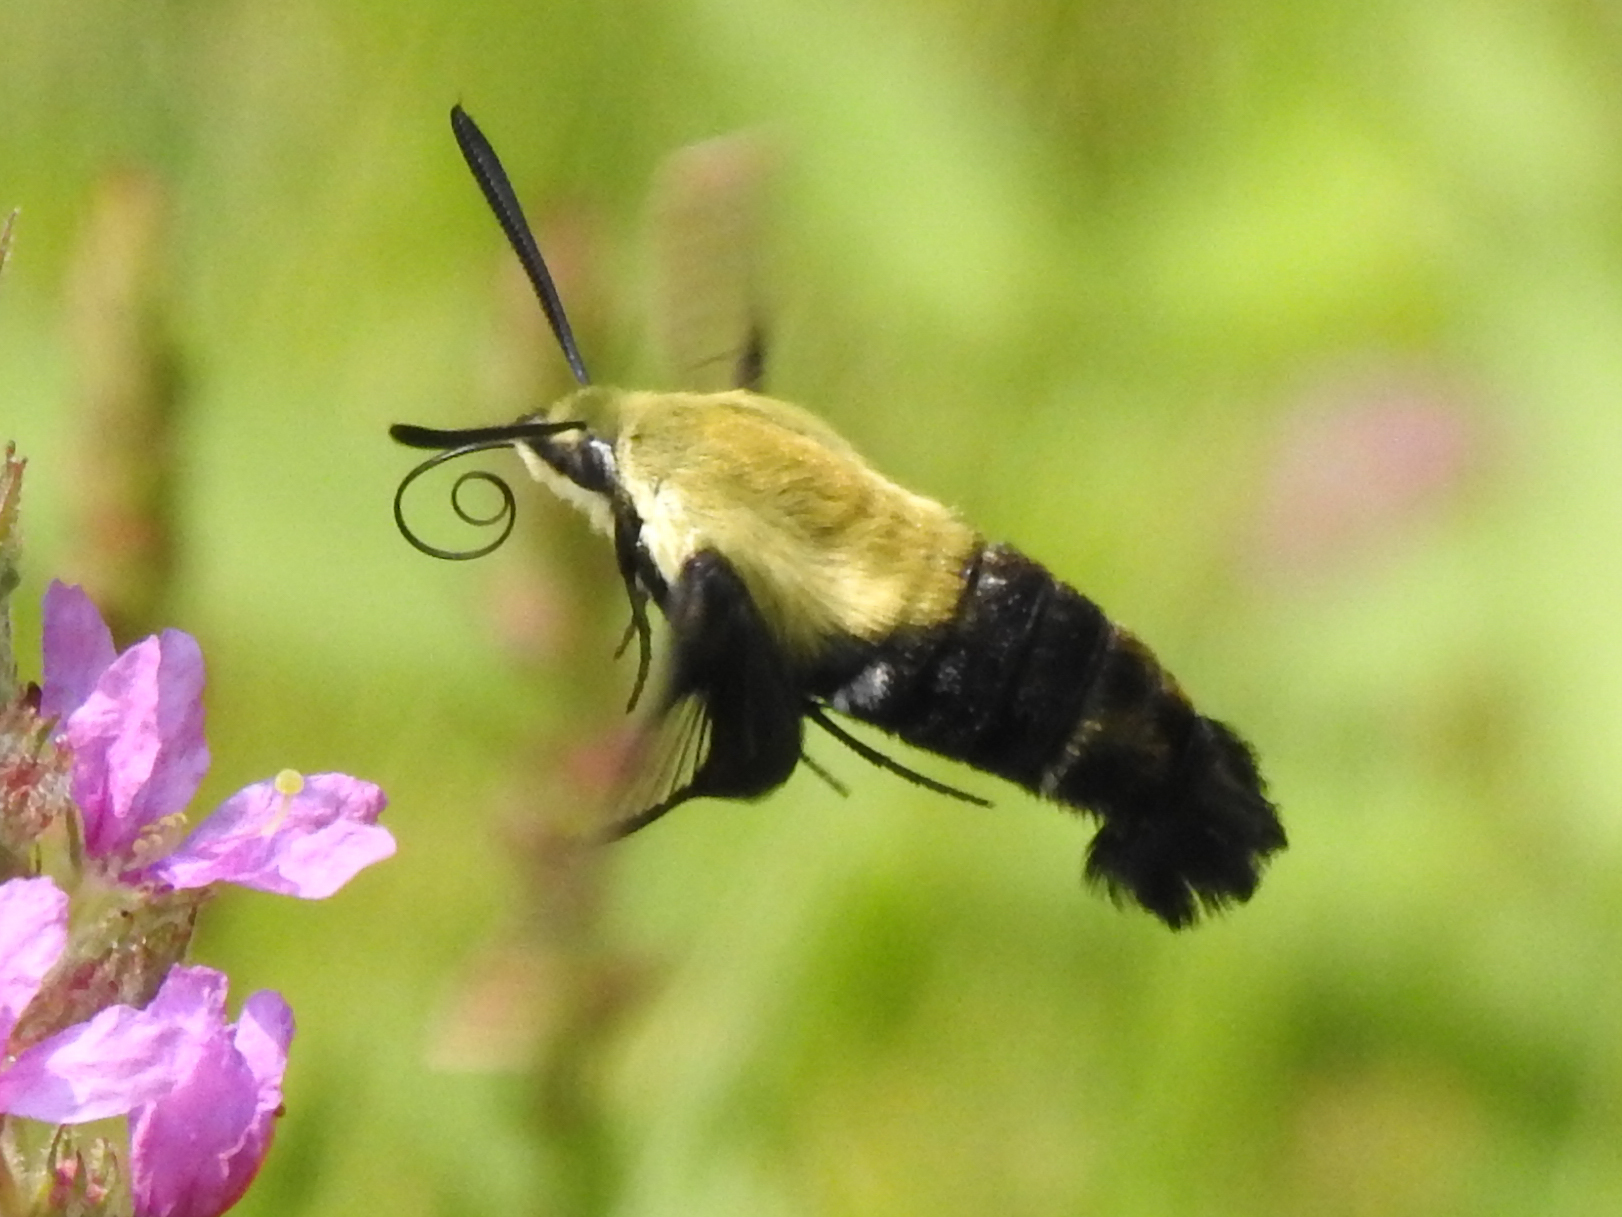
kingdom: Animalia
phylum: Arthropoda
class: Insecta
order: Lepidoptera
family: Sphingidae
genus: Hemaris
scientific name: Hemaris diffinis
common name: Bumblebee moth
